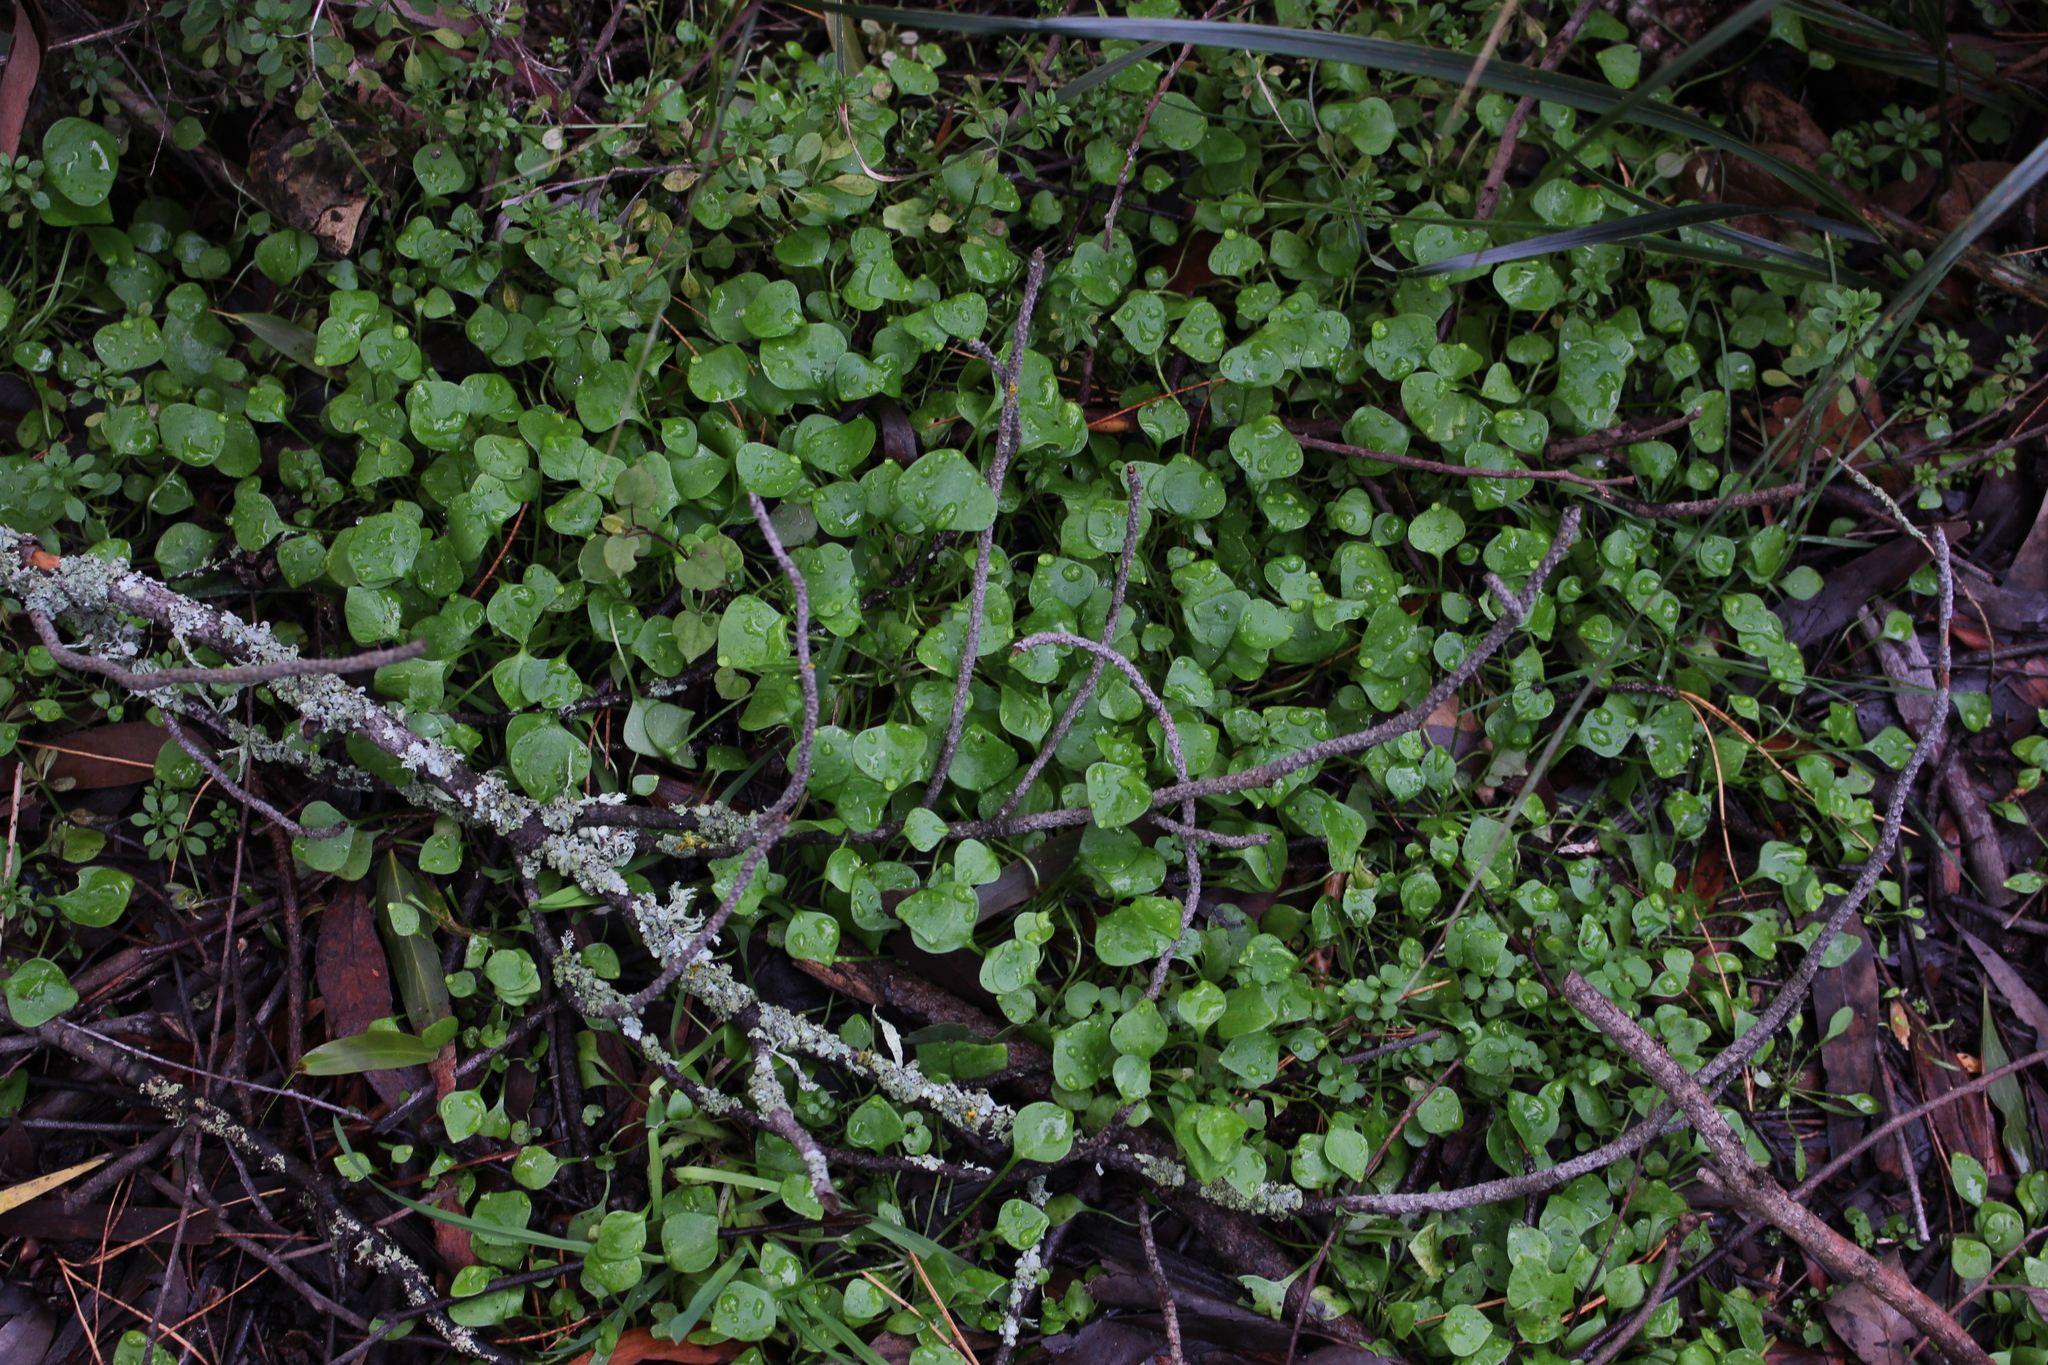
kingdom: Plantae
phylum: Tracheophyta
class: Magnoliopsida
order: Caryophyllales
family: Montiaceae
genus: Claytonia
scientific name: Claytonia perfoliata
